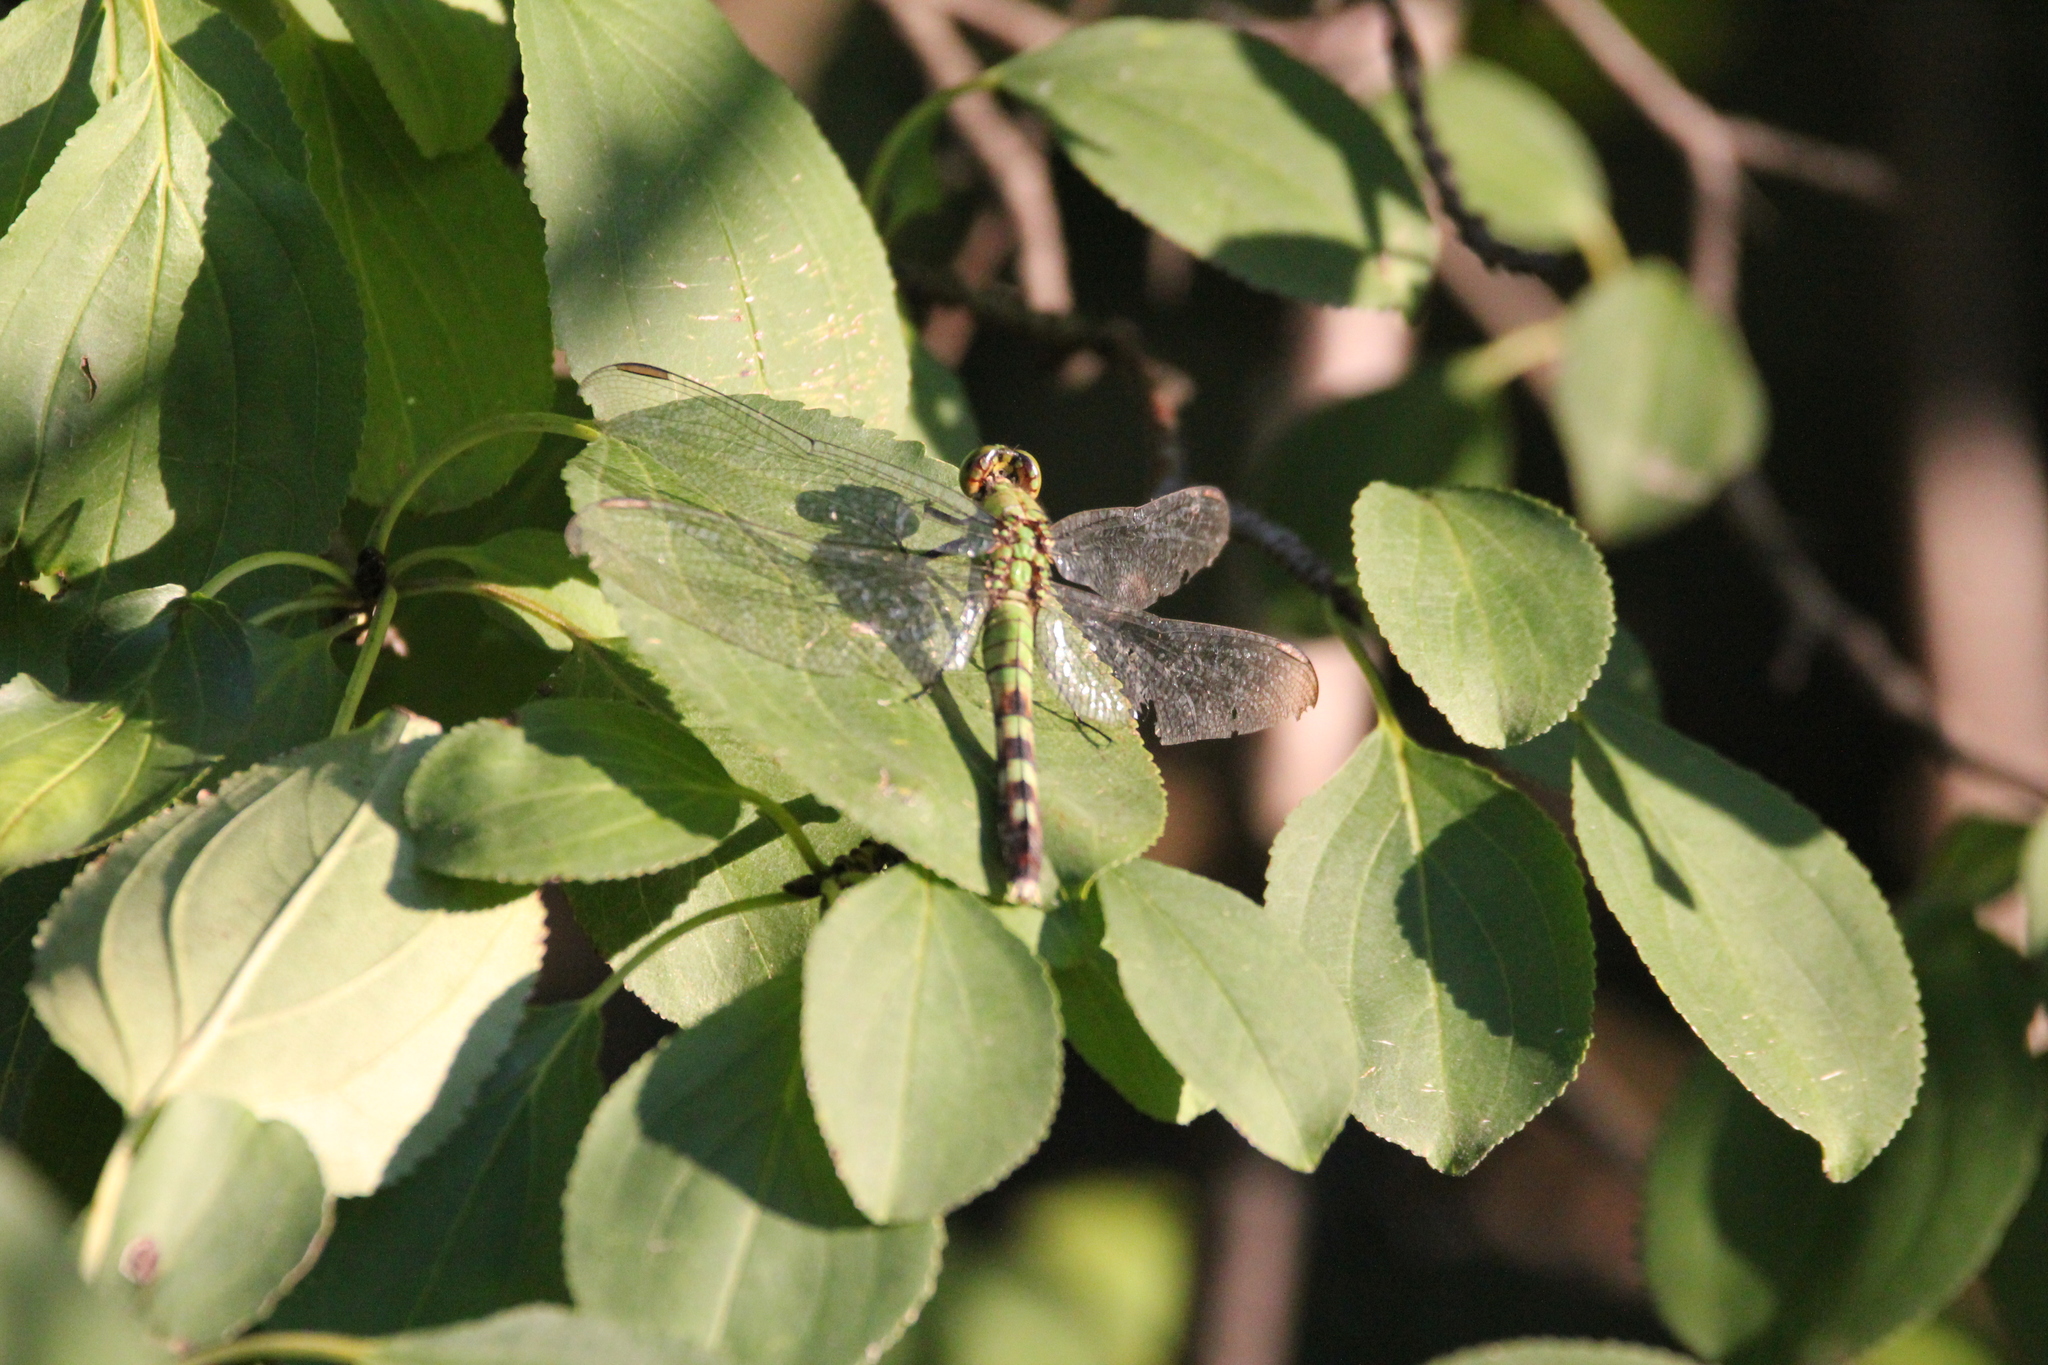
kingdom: Animalia
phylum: Arthropoda
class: Insecta
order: Odonata
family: Libellulidae
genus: Erythemis
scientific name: Erythemis simplicicollis
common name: Eastern pondhawk
